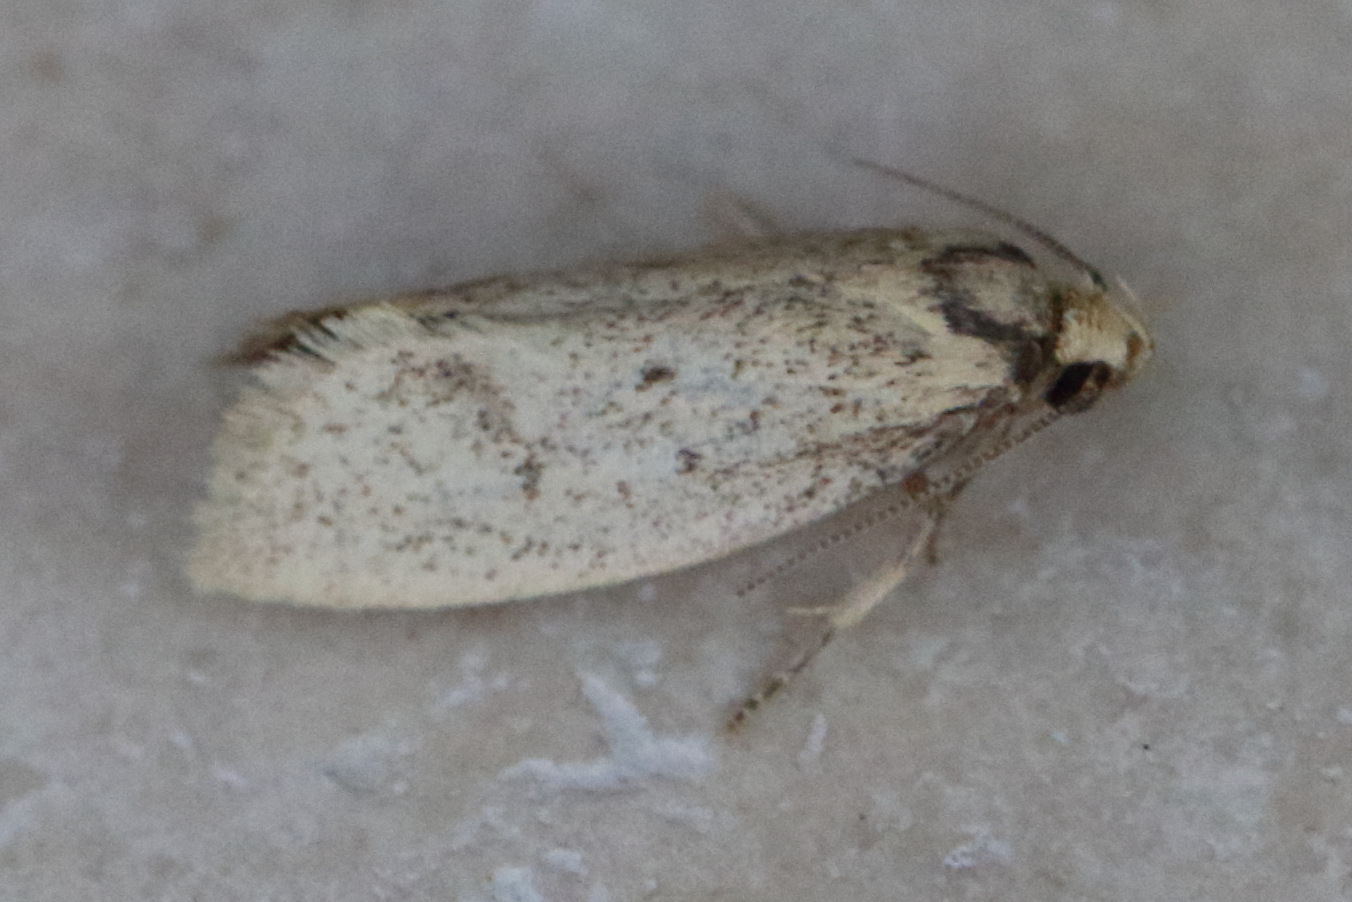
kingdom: Animalia
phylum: Arthropoda
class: Insecta
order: Lepidoptera
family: Oecophoridae
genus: Scoliocheta
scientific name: Scoliocheta ergatis
